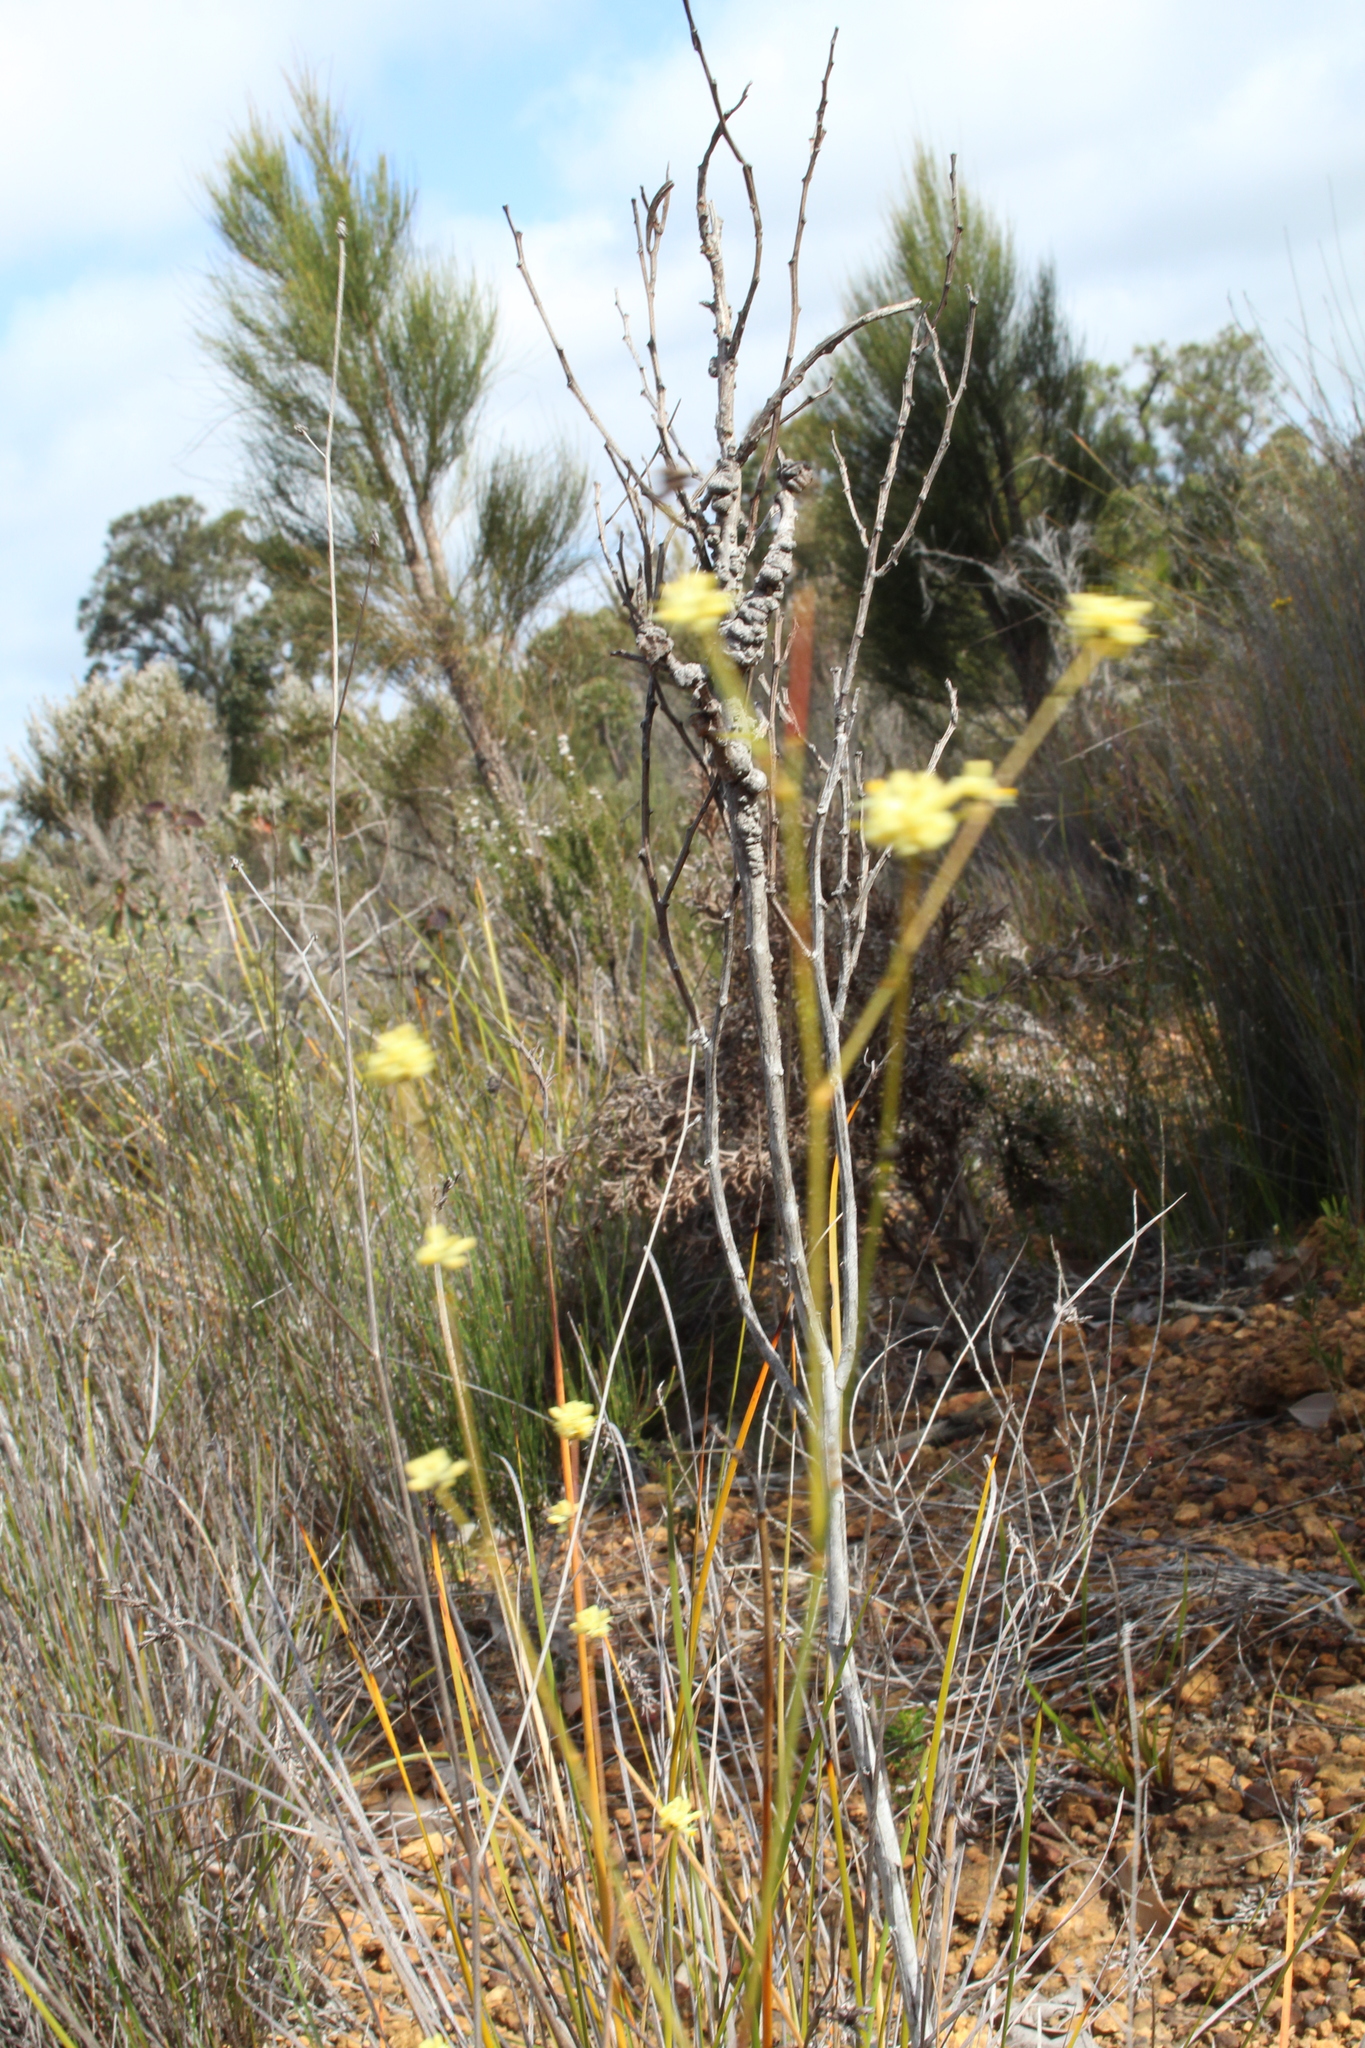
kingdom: Plantae
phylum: Tracheophyta
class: Magnoliopsida
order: Proteales
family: Proteaceae
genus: Stirlingia
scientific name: Stirlingia tenuifolia
